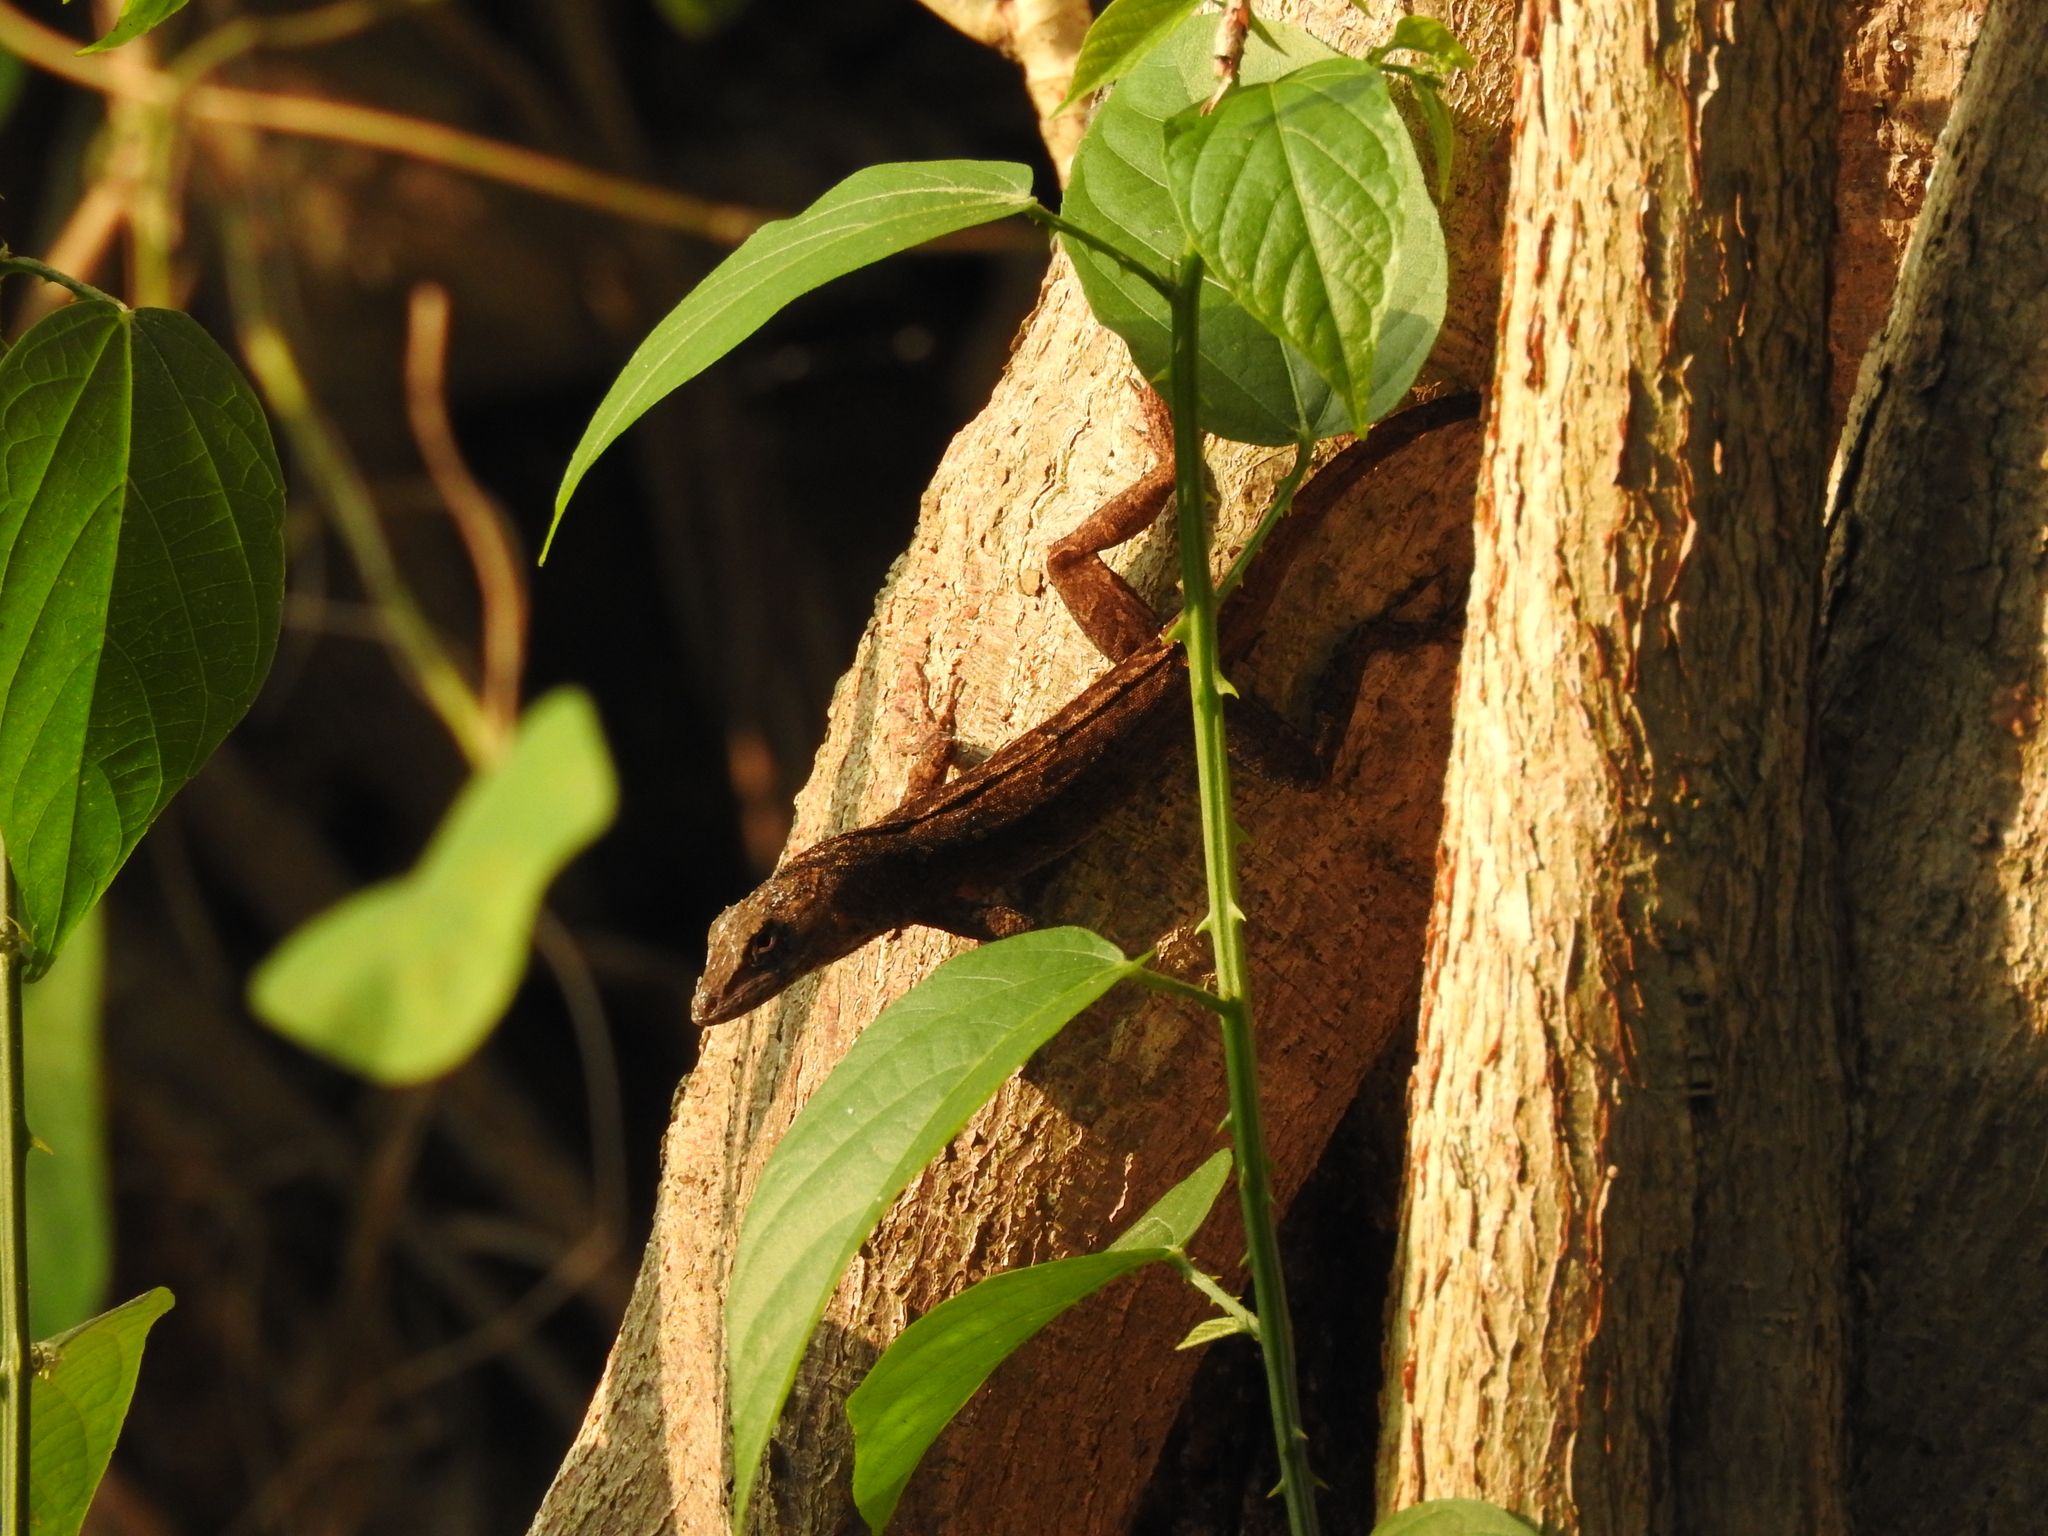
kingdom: Animalia
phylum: Chordata
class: Squamata
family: Dactyloidae
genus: Anolis
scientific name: Anolis sagrei
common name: Brown anole
